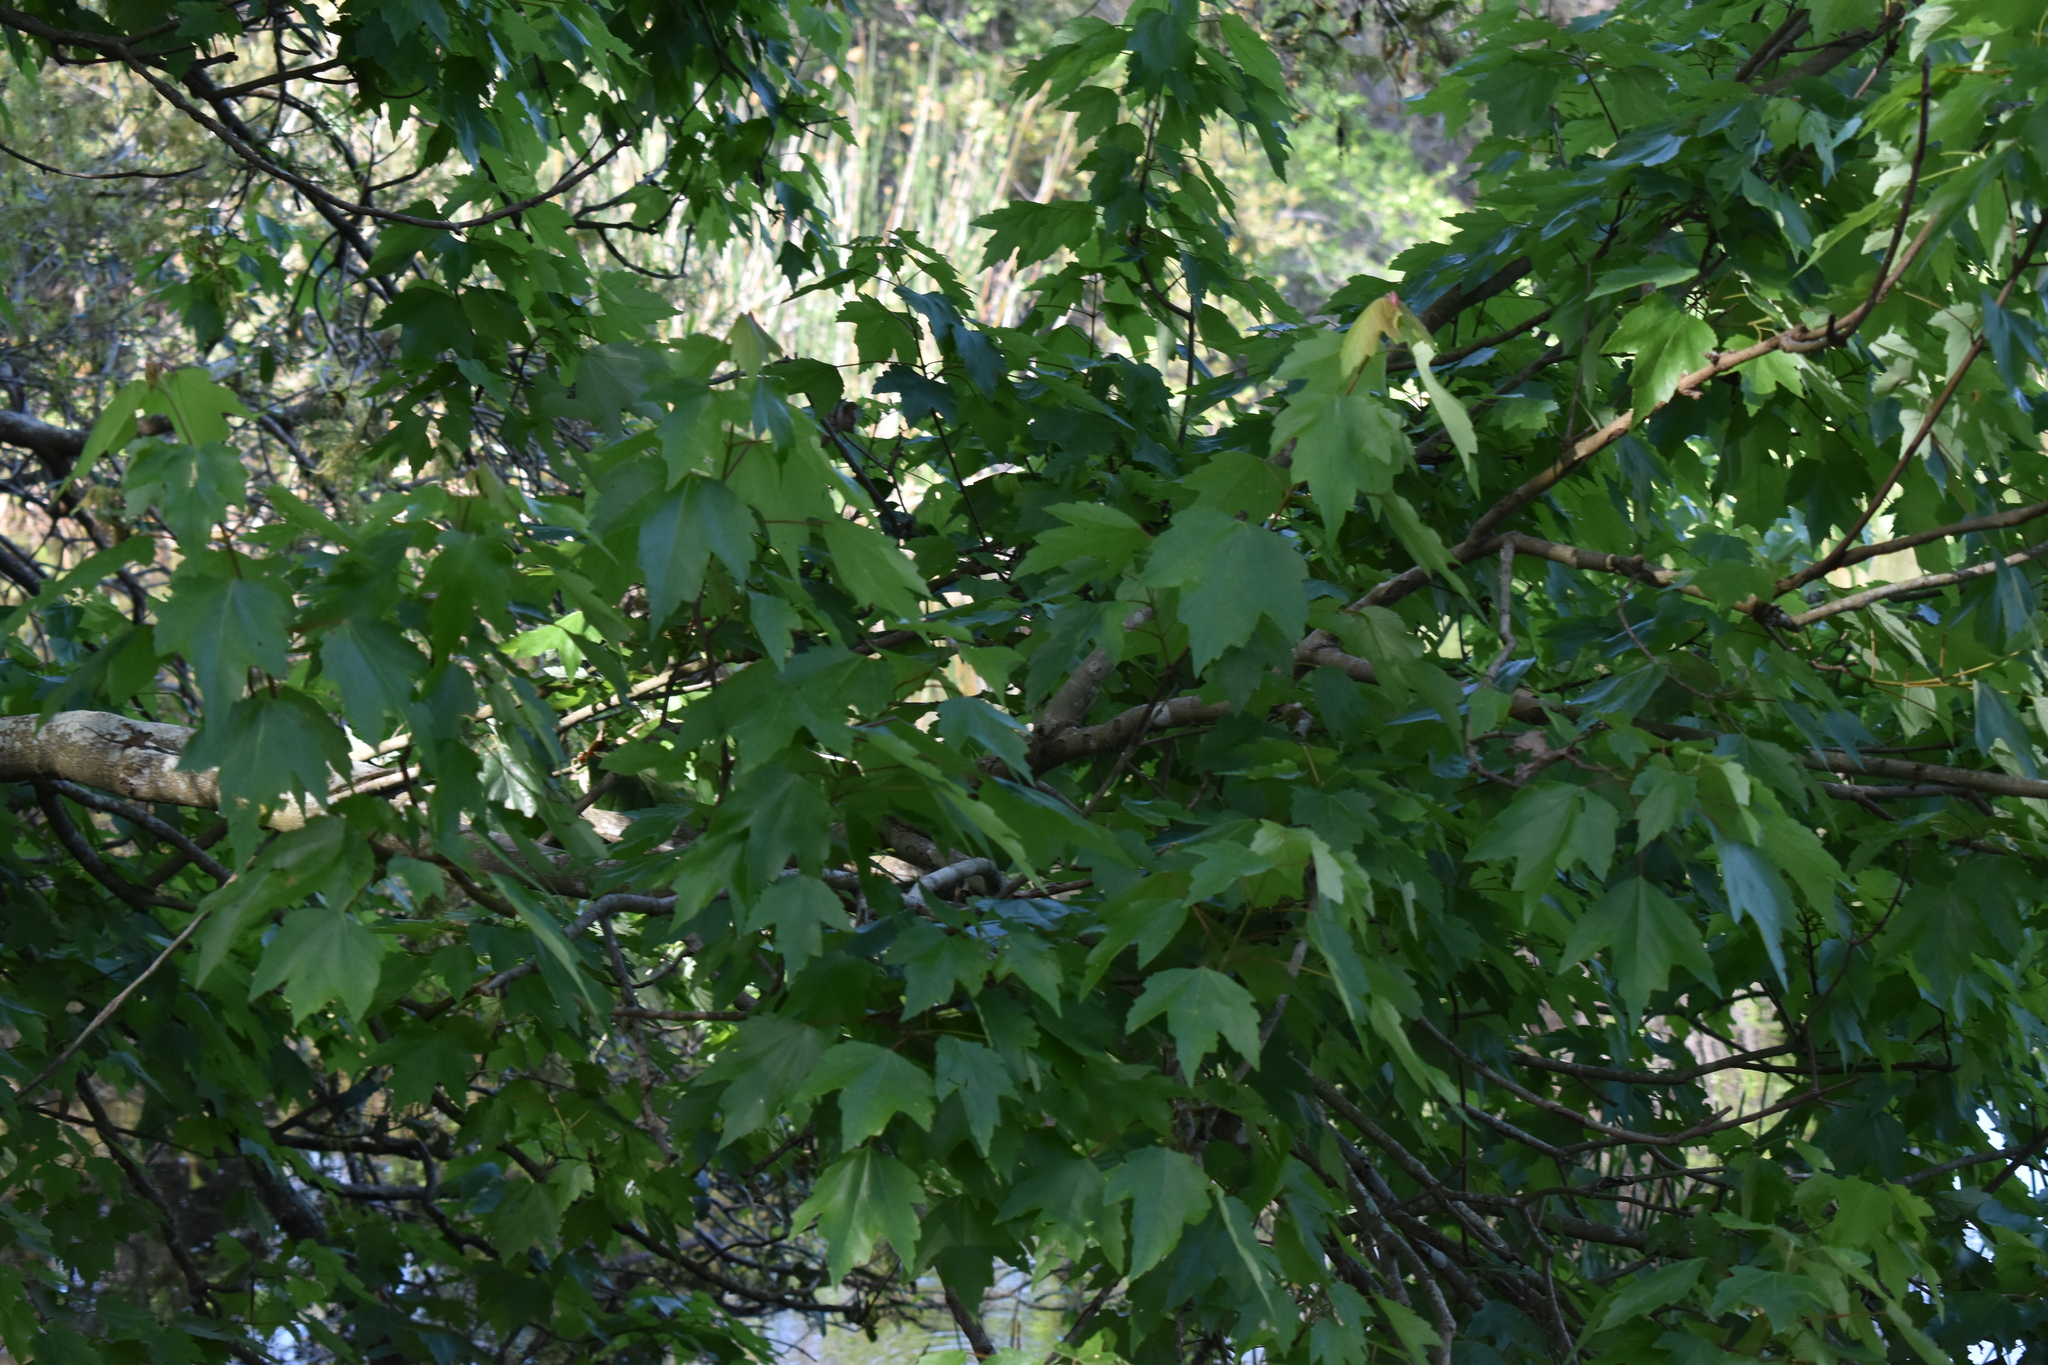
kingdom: Plantae
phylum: Tracheophyta
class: Magnoliopsida
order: Sapindales
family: Sapindaceae
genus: Acer
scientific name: Acer rubrum
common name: Red maple
